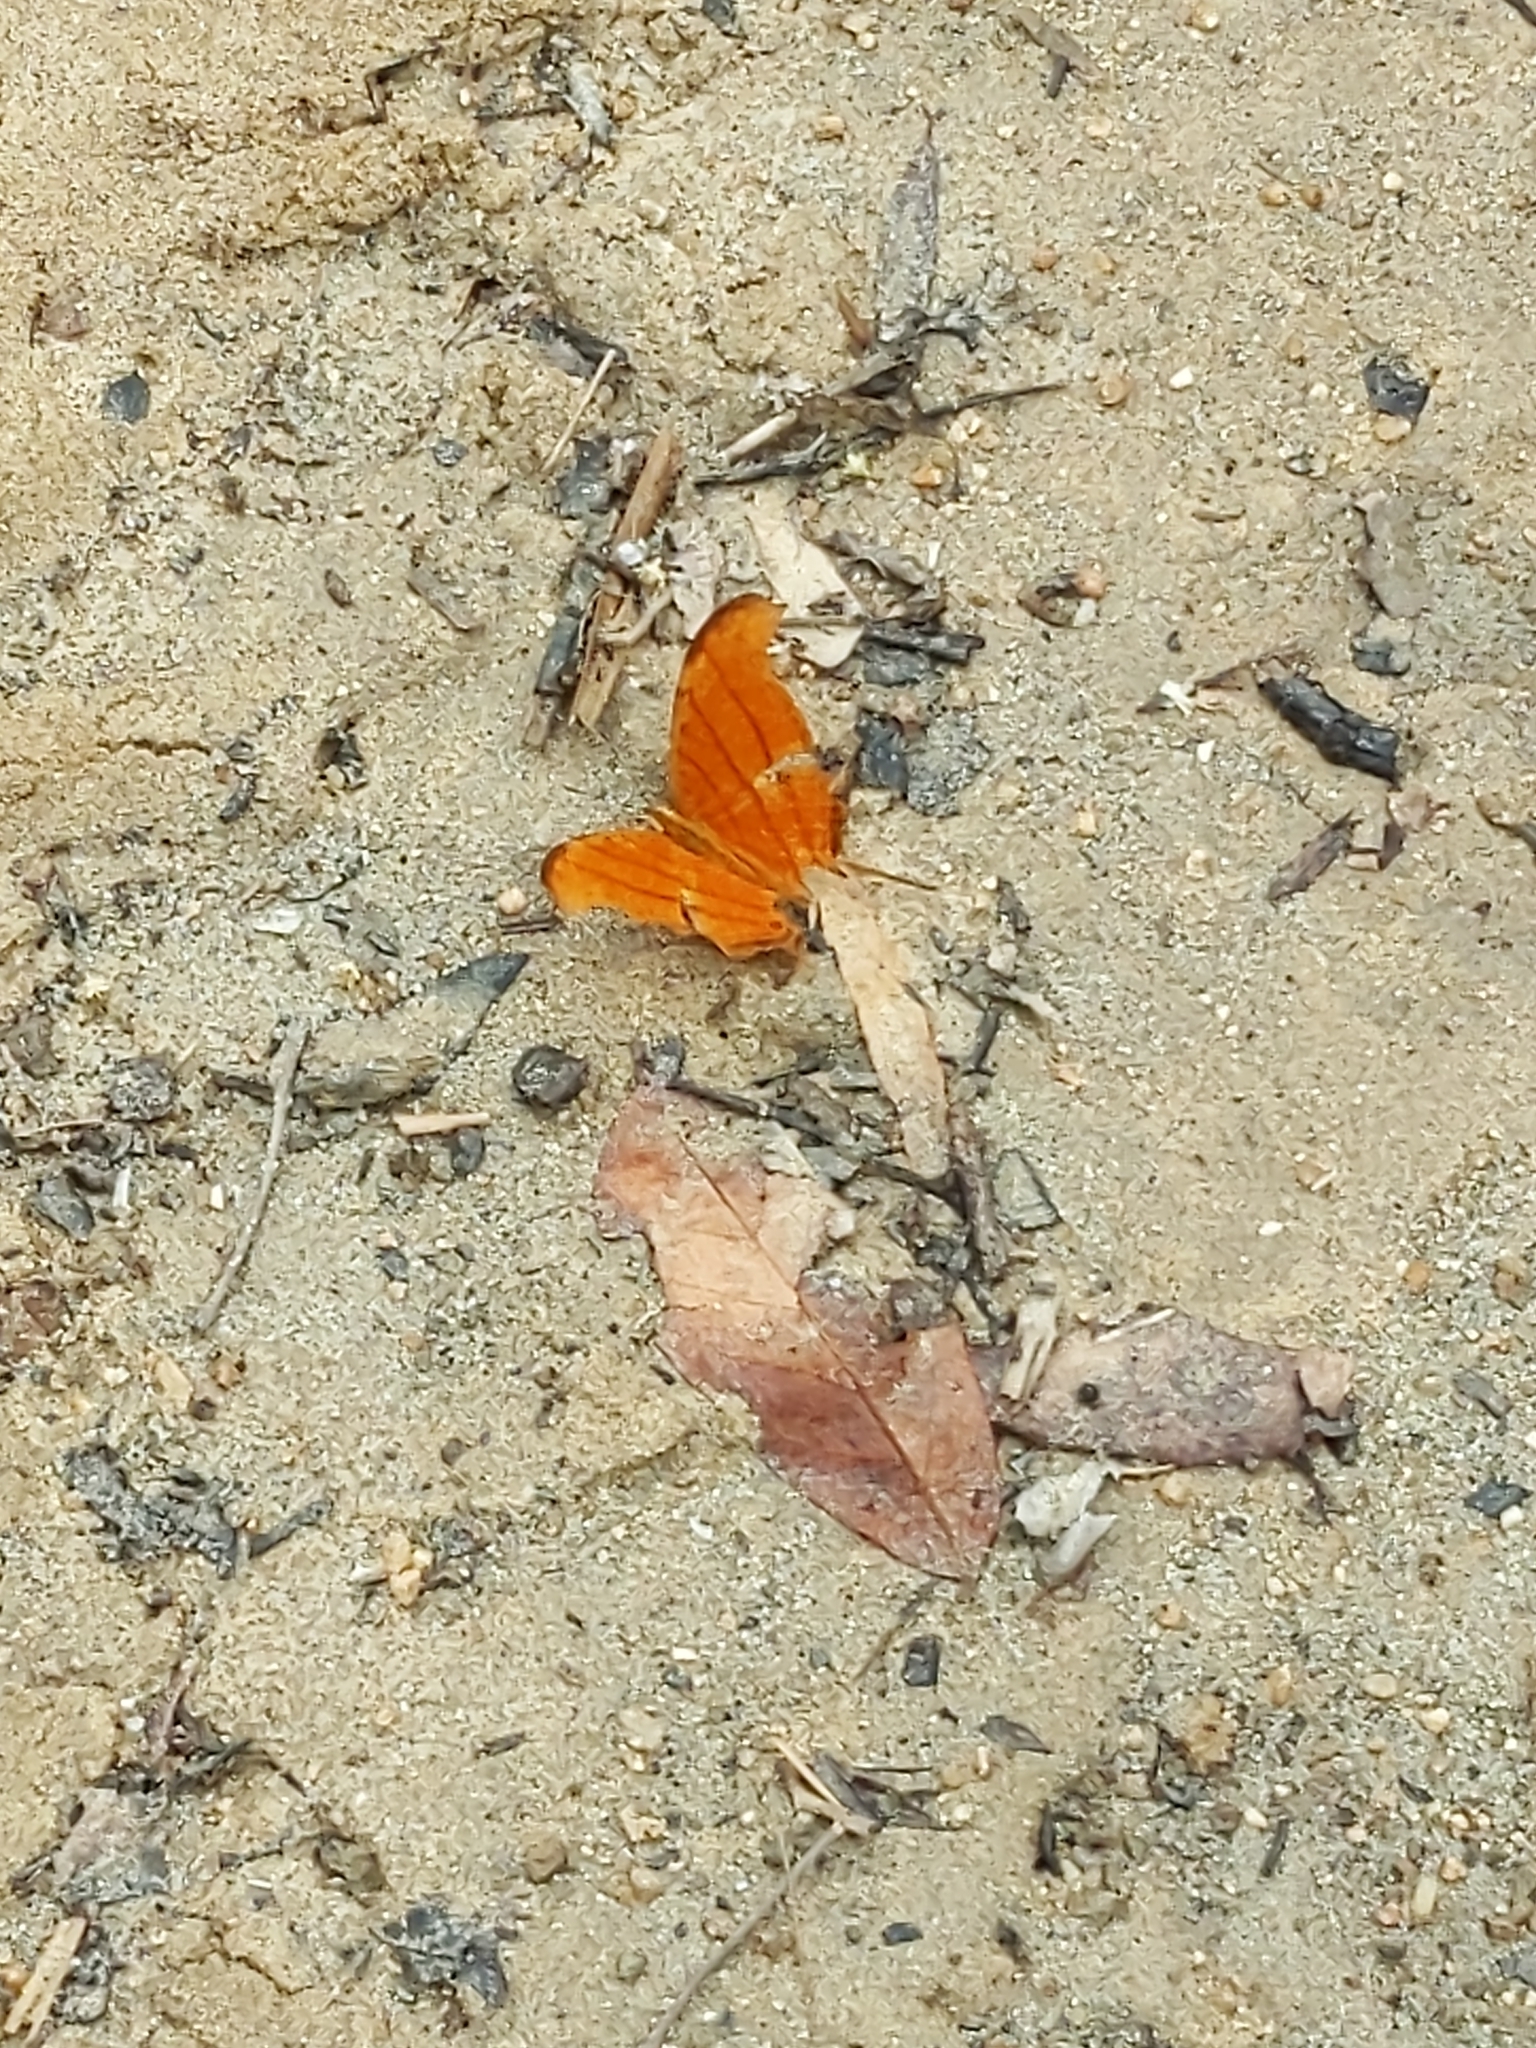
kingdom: Animalia
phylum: Arthropoda
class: Insecta
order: Lepidoptera
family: Nymphalidae
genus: Marpesia
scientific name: Marpesia petreus
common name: Red dagger wing
